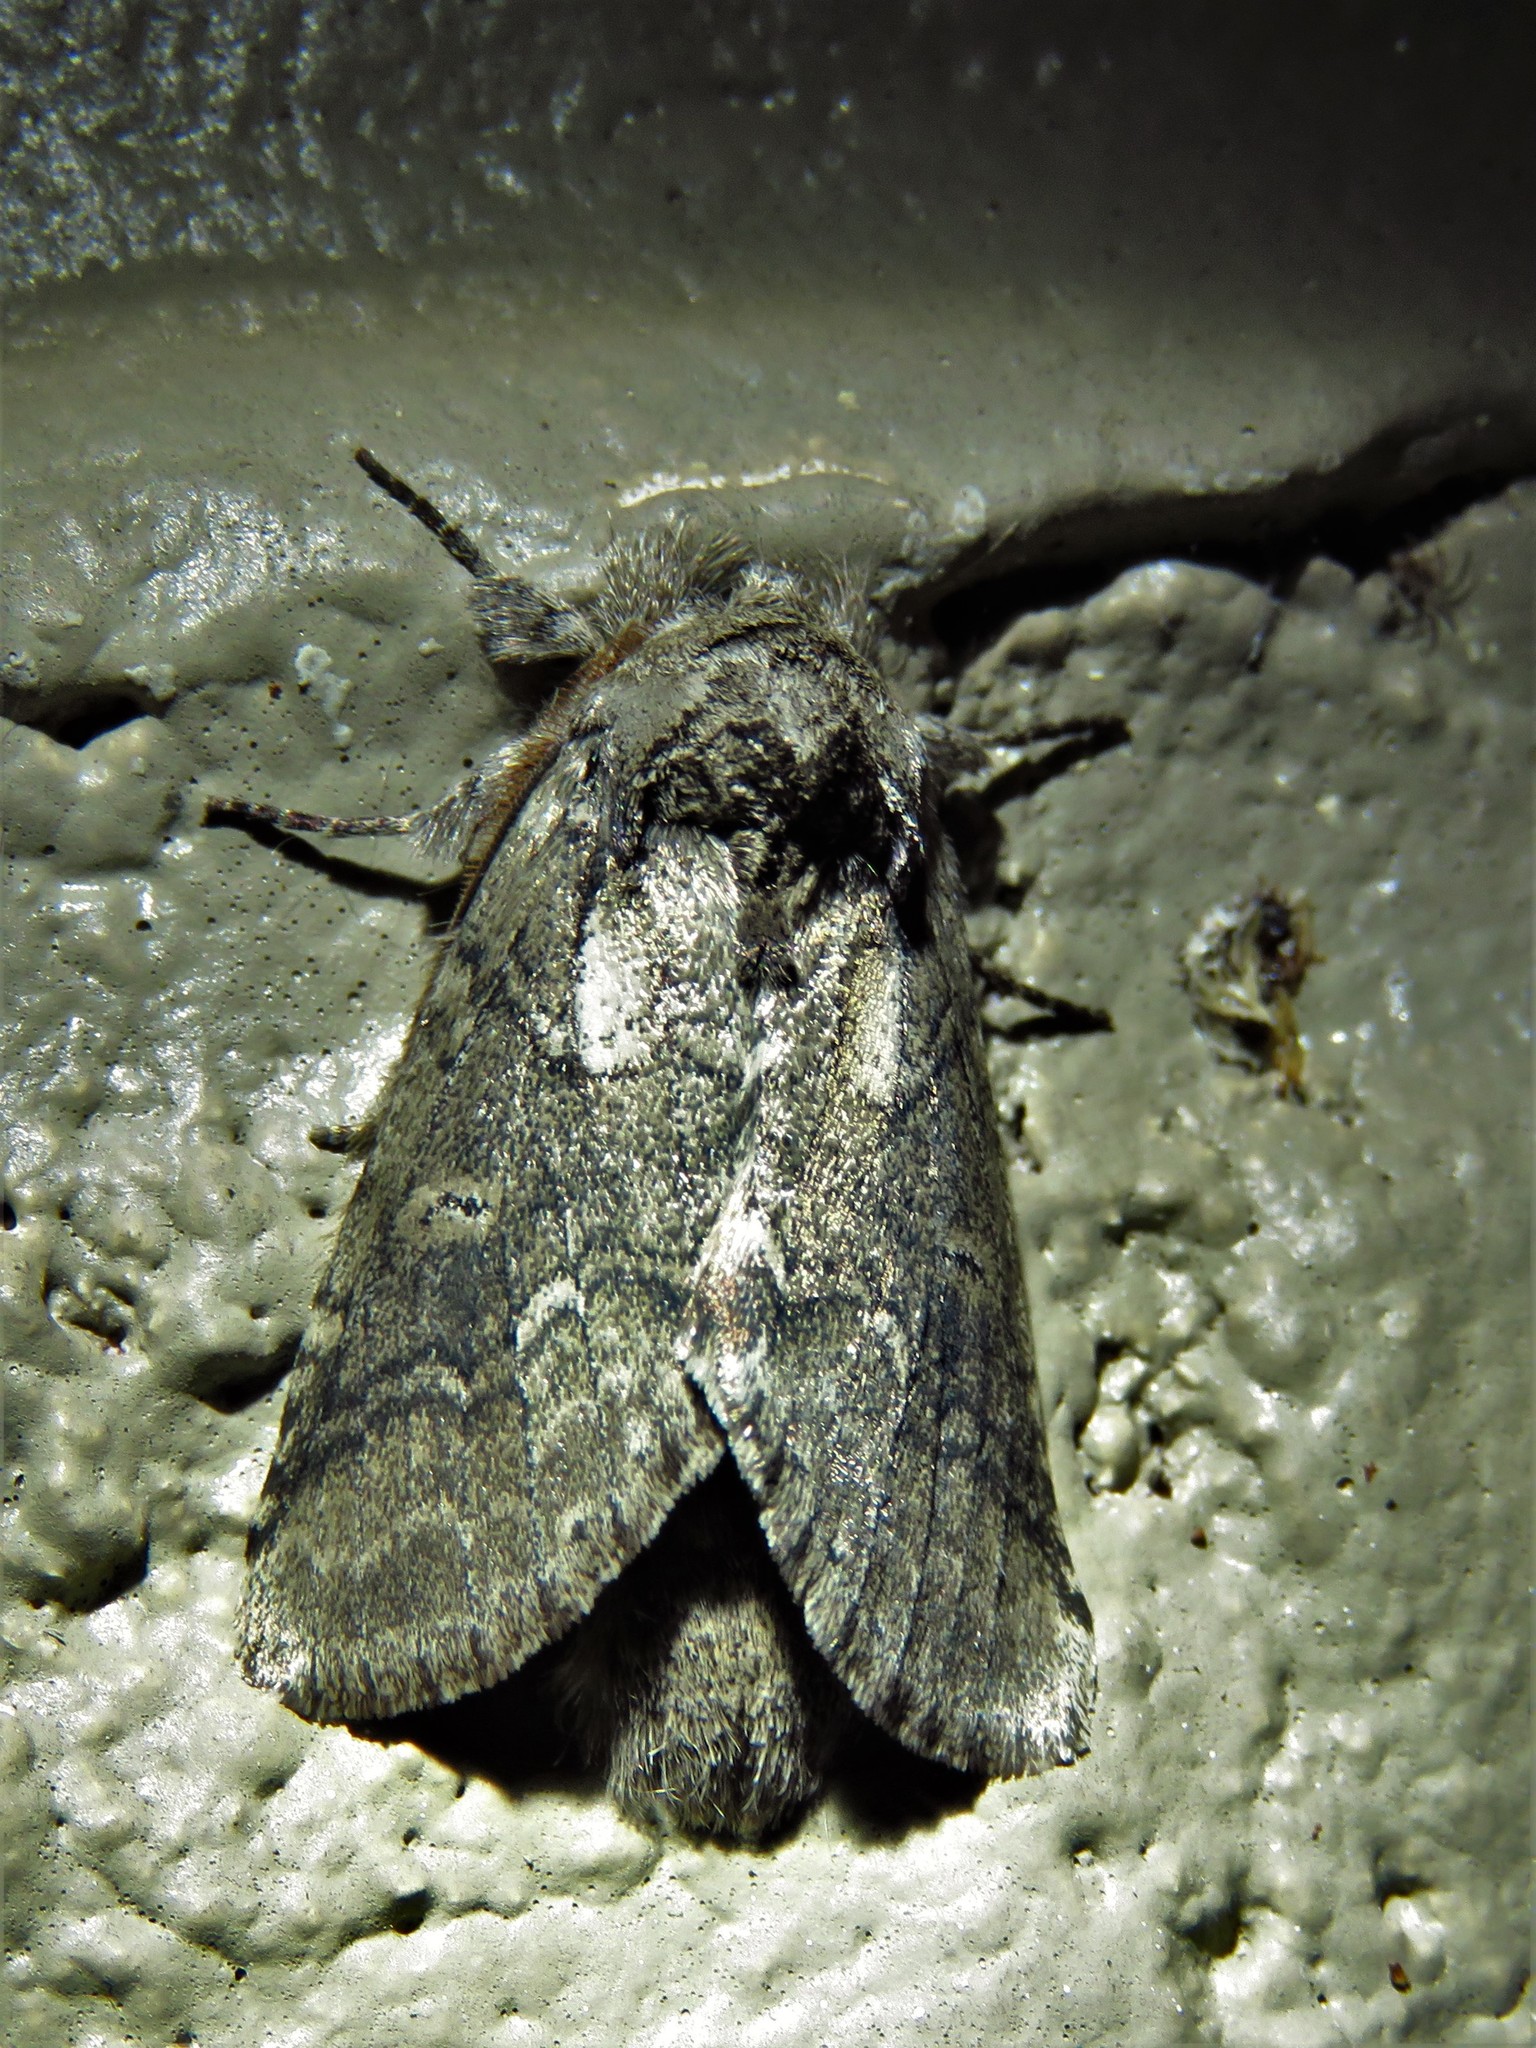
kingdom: Animalia
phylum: Arthropoda
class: Insecta
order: Lepidoptera
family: Notodontidae
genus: Lochmaeus
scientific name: Lochmaeus bilineata
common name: Double-lined prominent
